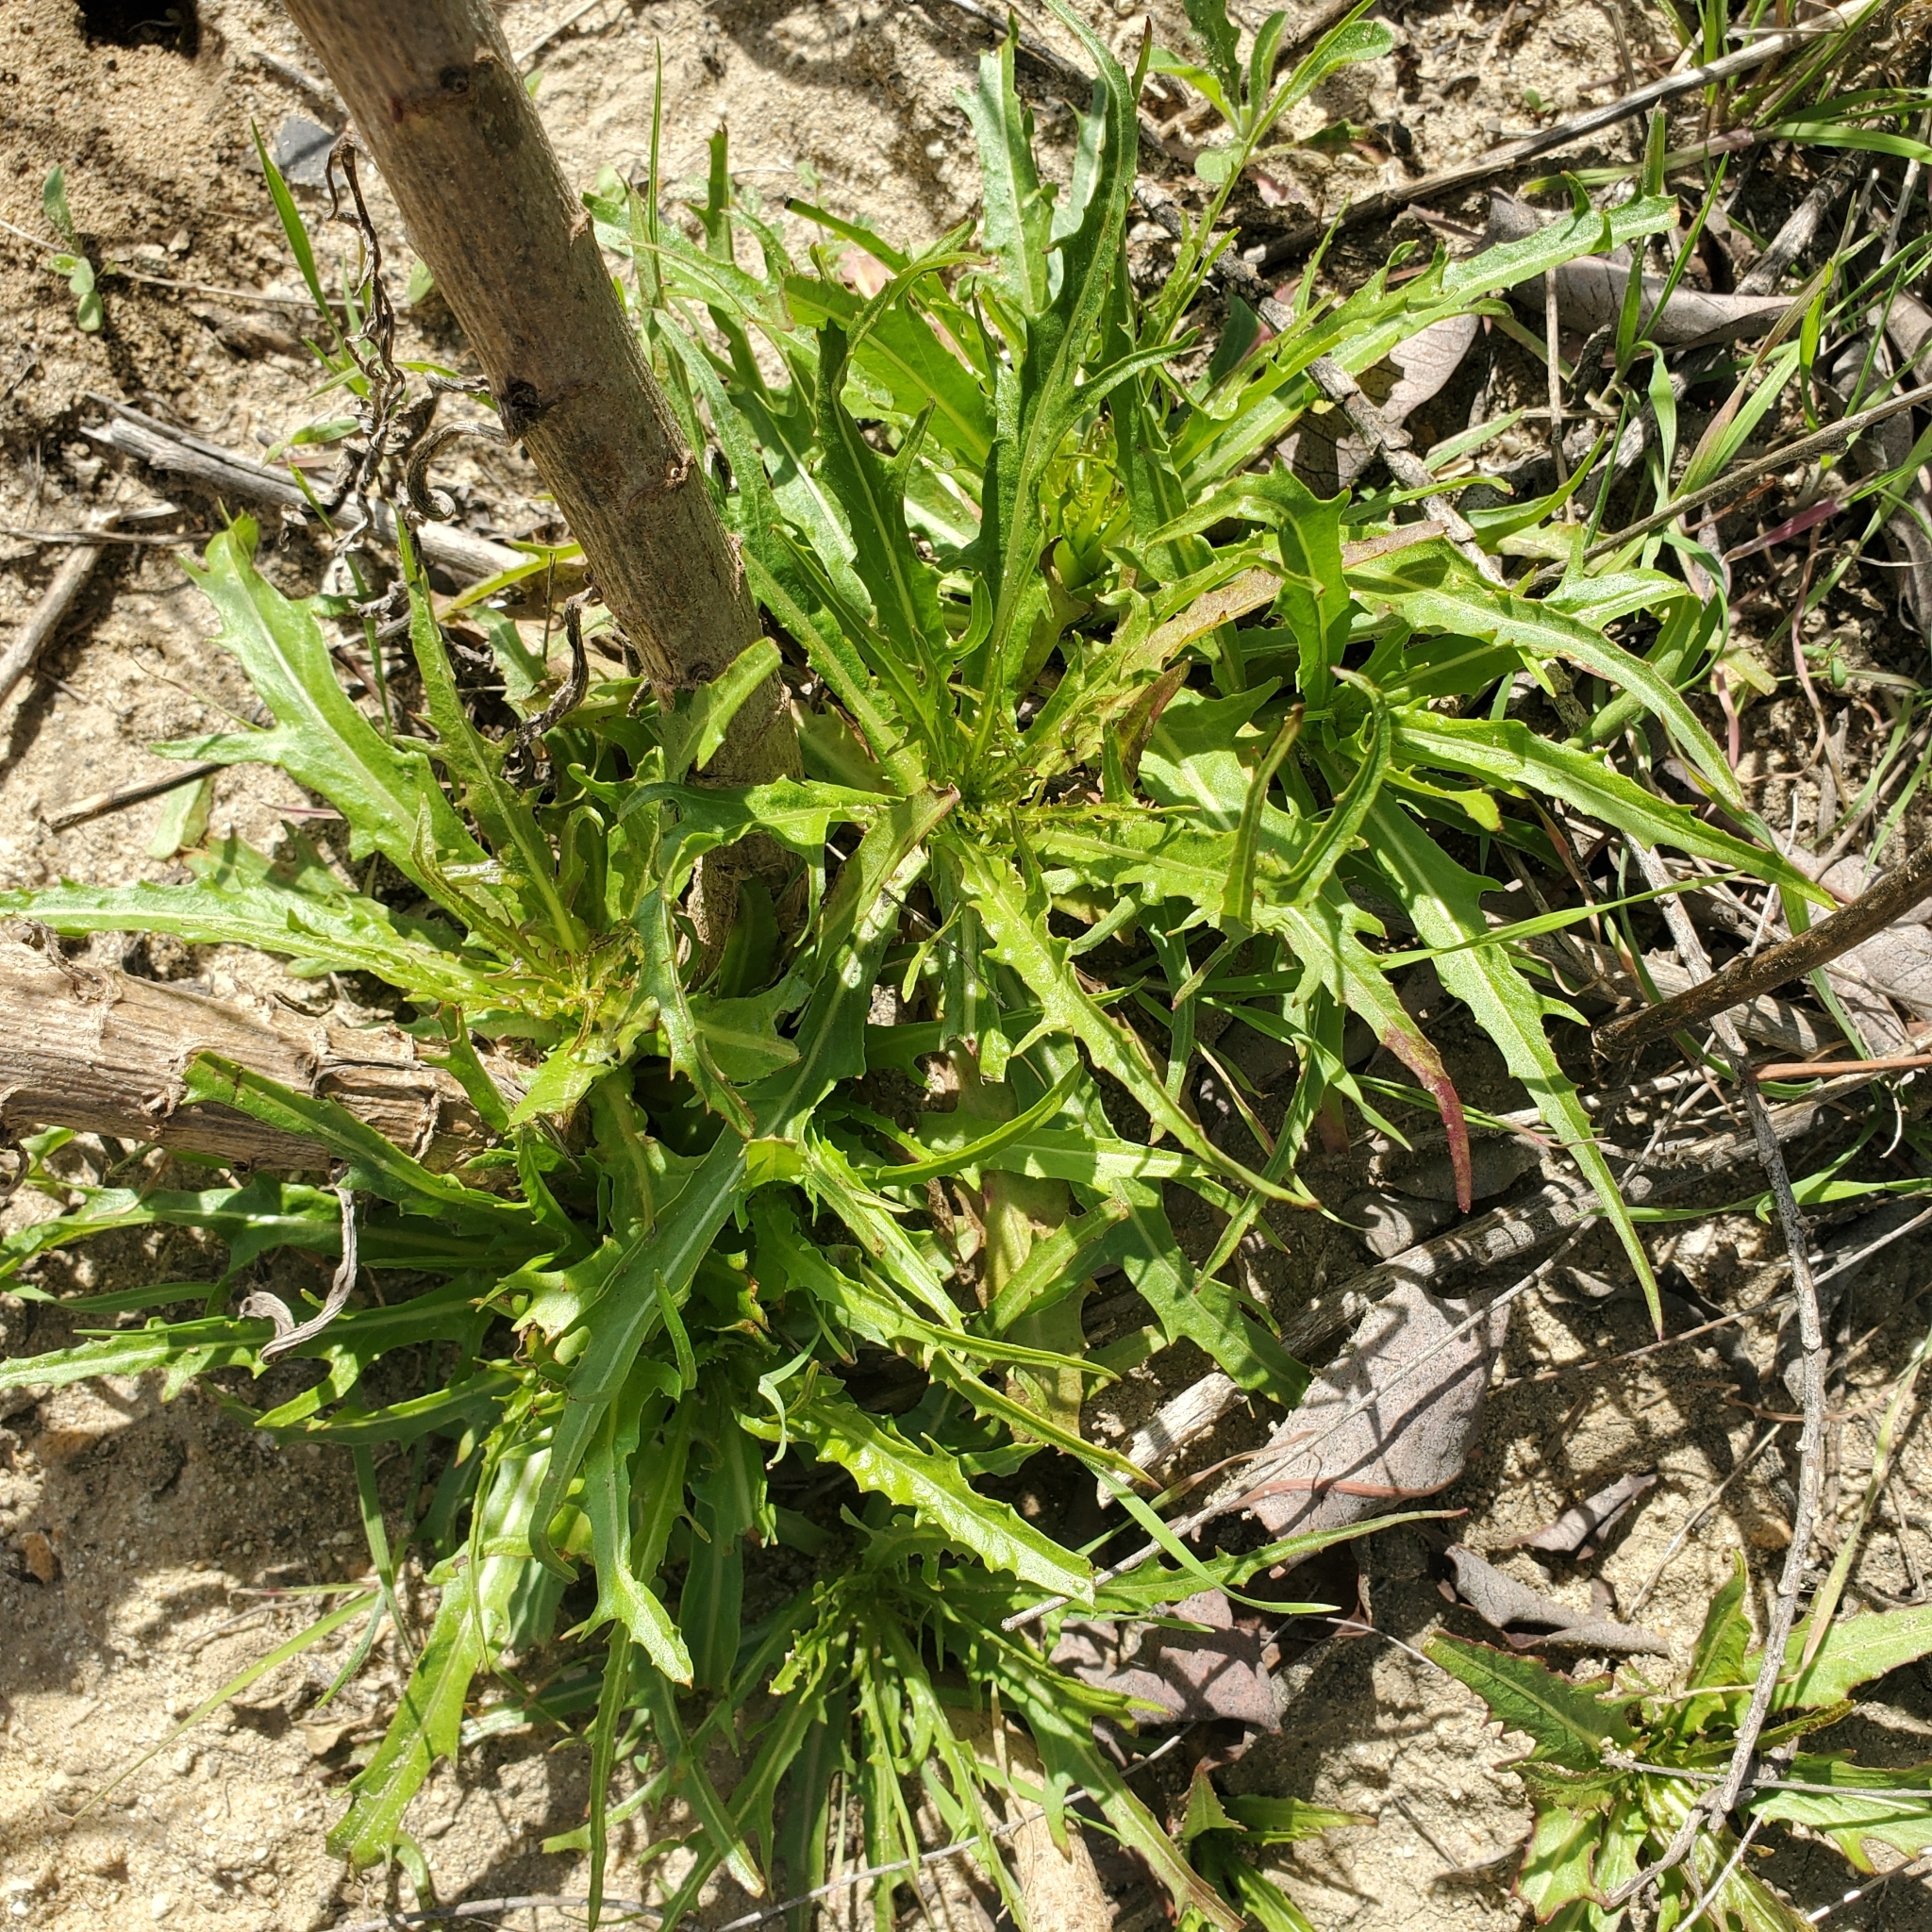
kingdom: Plantae
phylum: Tracheophyta
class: Magnoliopsida
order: Asterales
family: Asteraceae
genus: Malacothrix
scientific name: Malacothrix saxatilis
